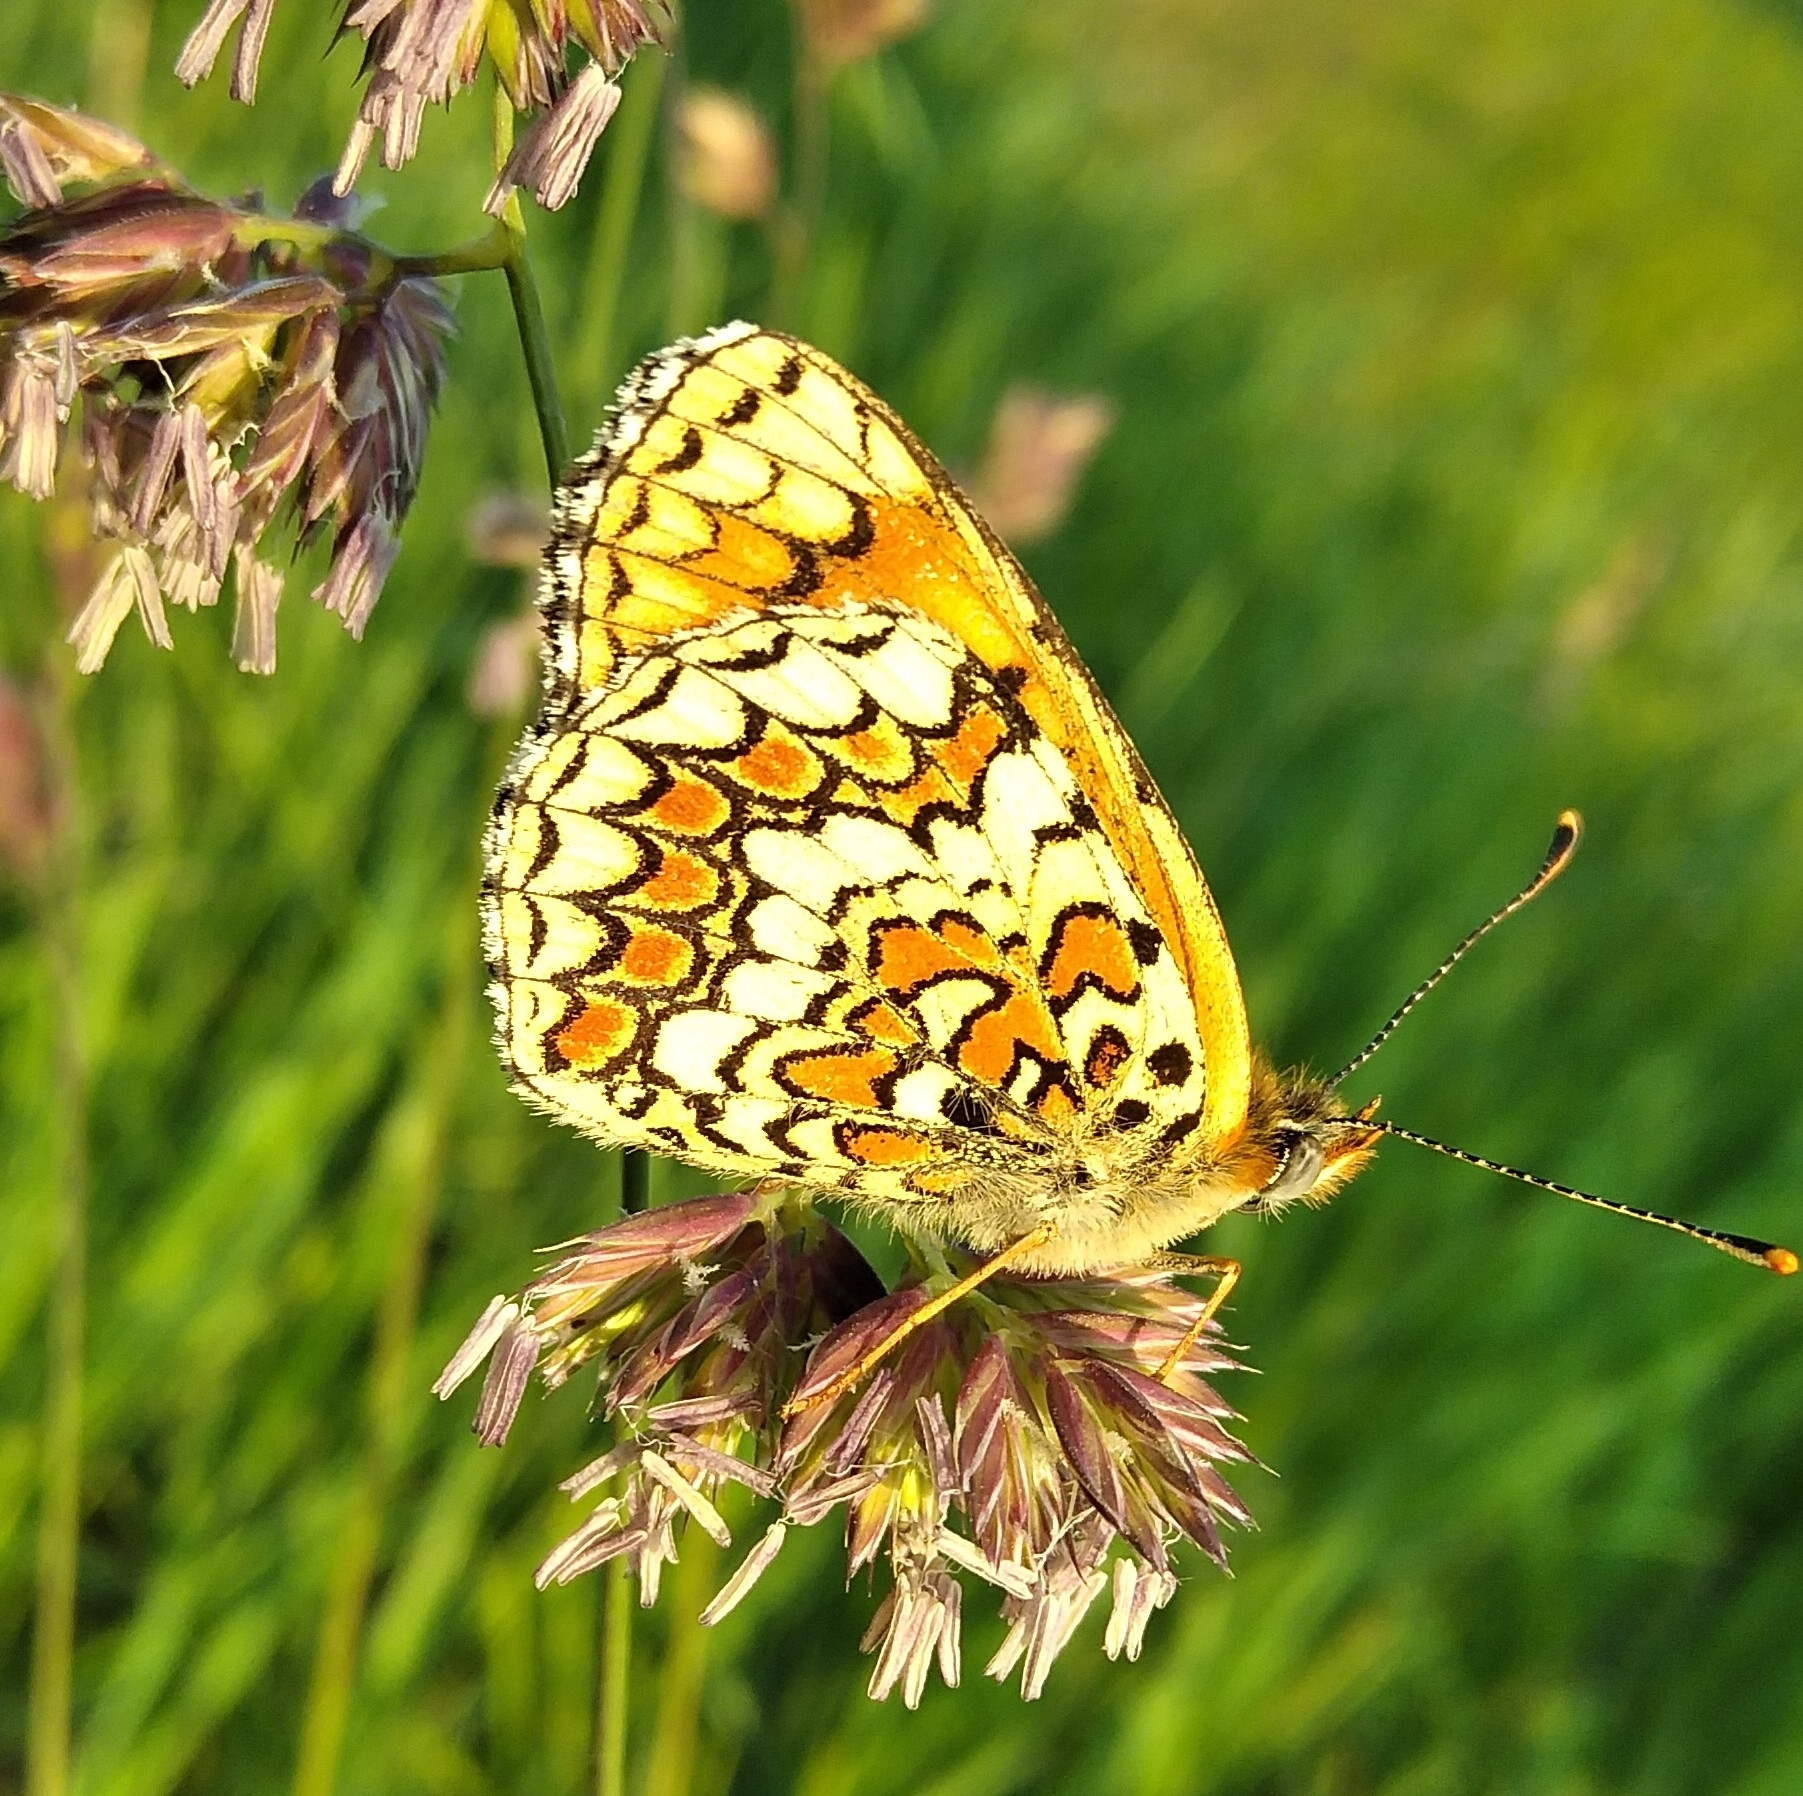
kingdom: Animalia
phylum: Arthropoda
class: Insecta
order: Lepidoptera
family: Nymphalidae
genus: Melitaea
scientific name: Melitaea phoebe
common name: Knapweed fritillary
